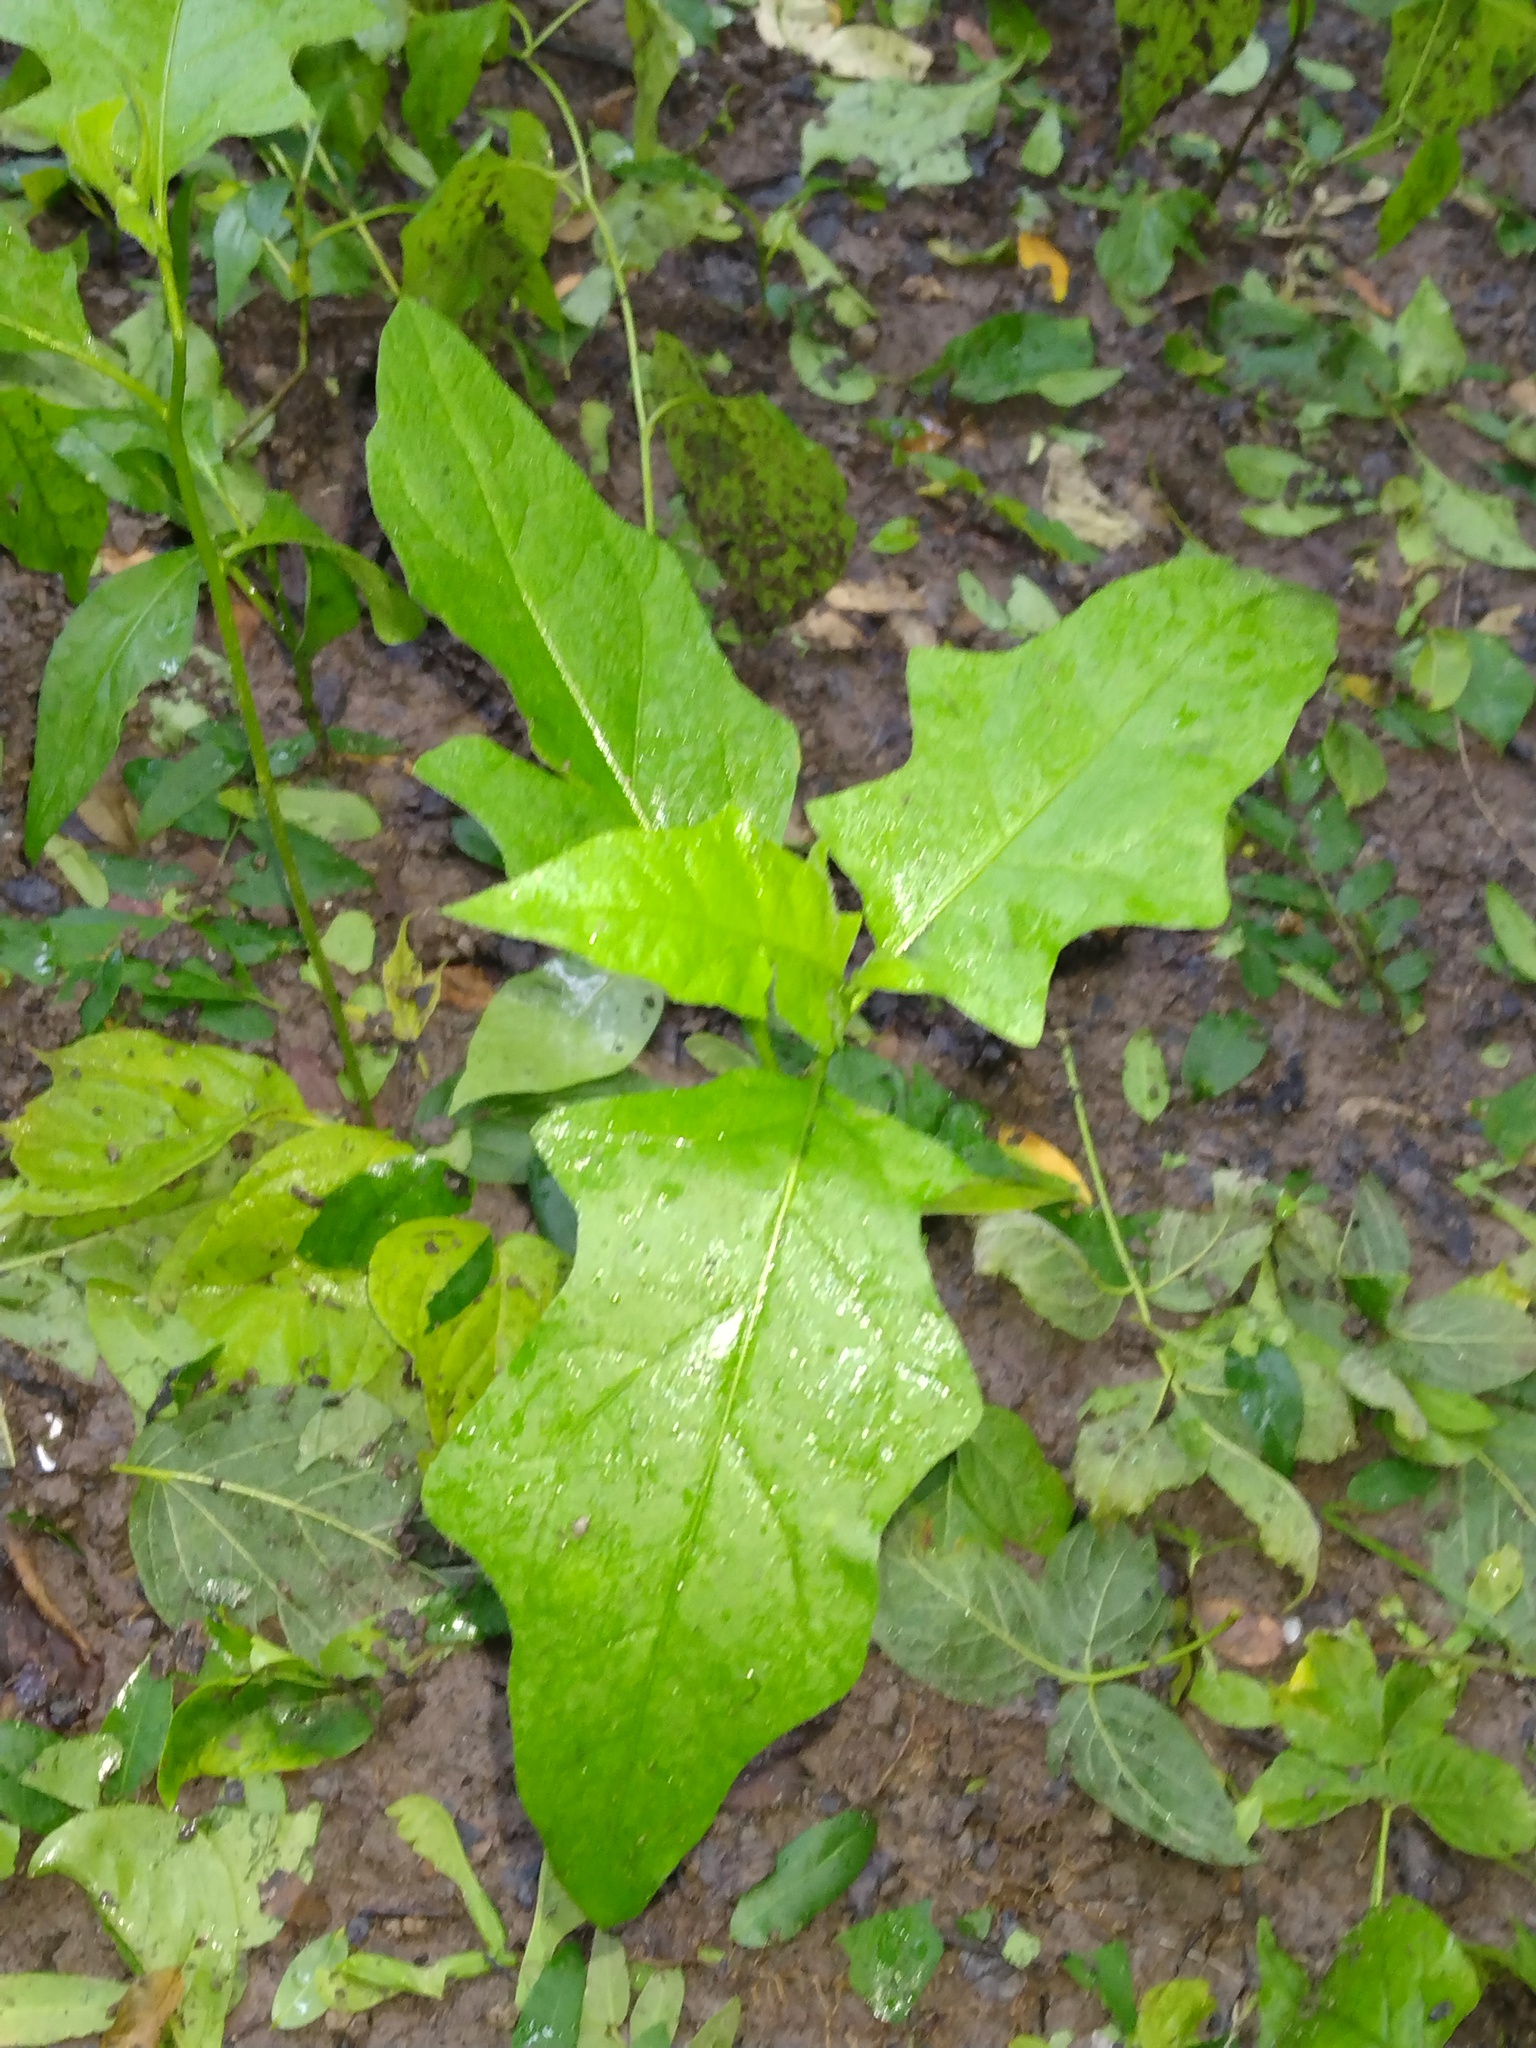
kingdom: Plantae
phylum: Tracheophyta
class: Magnoliopsida
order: Solanales
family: Solanaceae
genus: Solanum
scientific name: Solanum carolinense
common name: Horse-nettle
